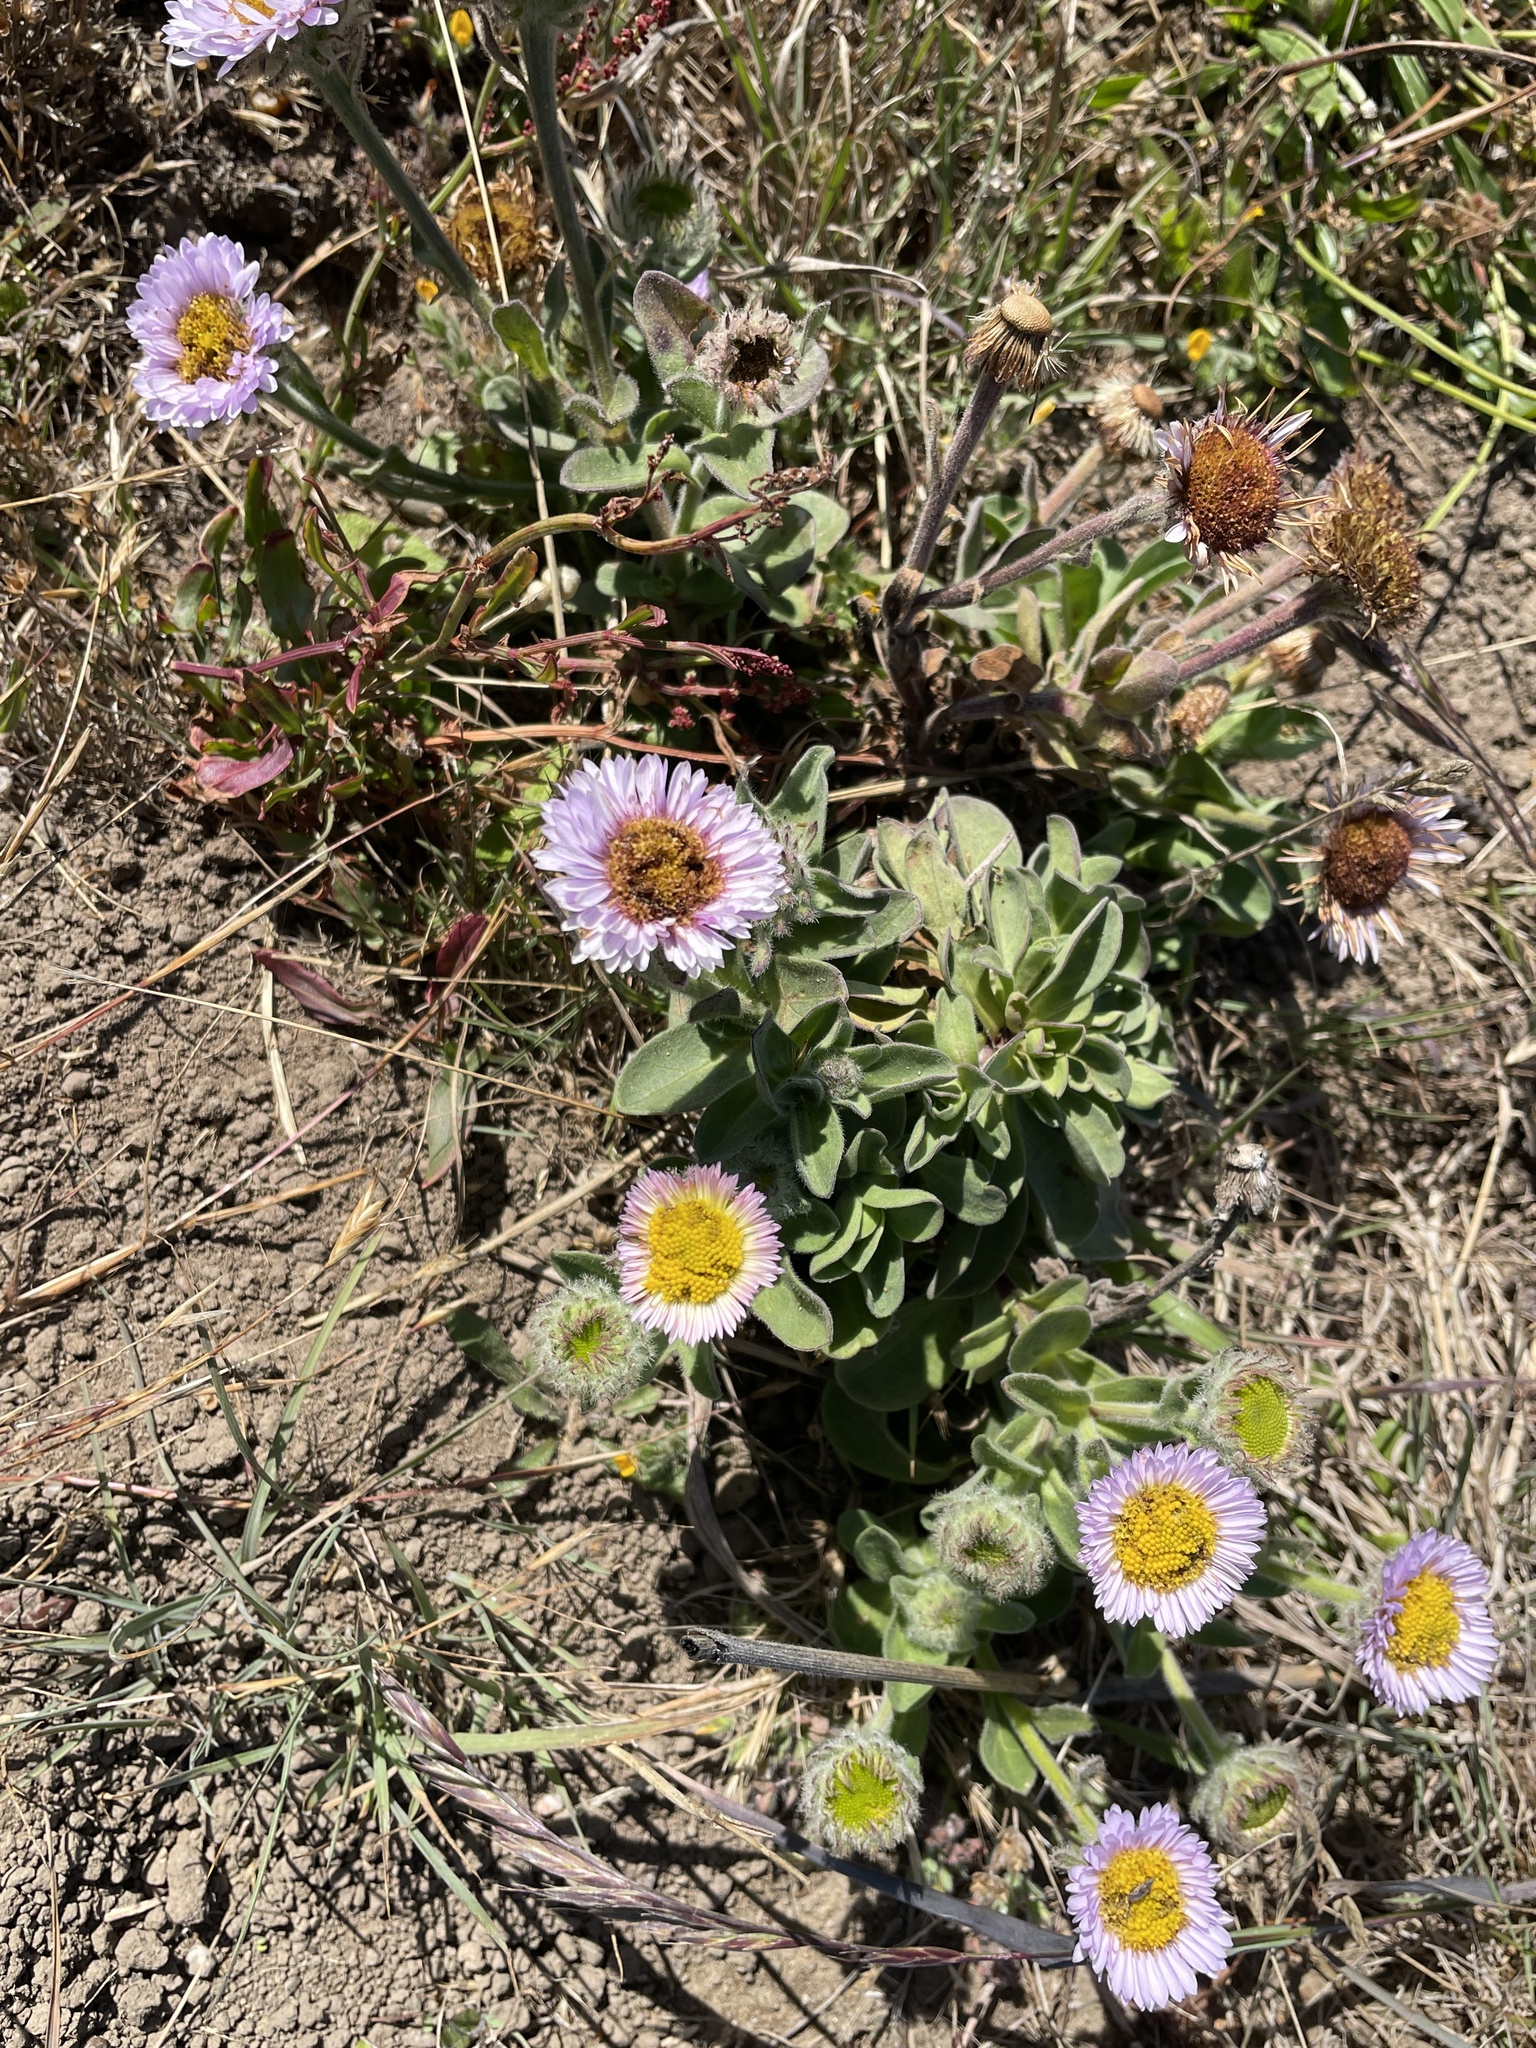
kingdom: Plantae
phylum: Tracheophyta
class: Magnoliopsida
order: Asterales
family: Asteraceae
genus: Erigeron
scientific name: Erigeron glaucus
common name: Seaside daisy
